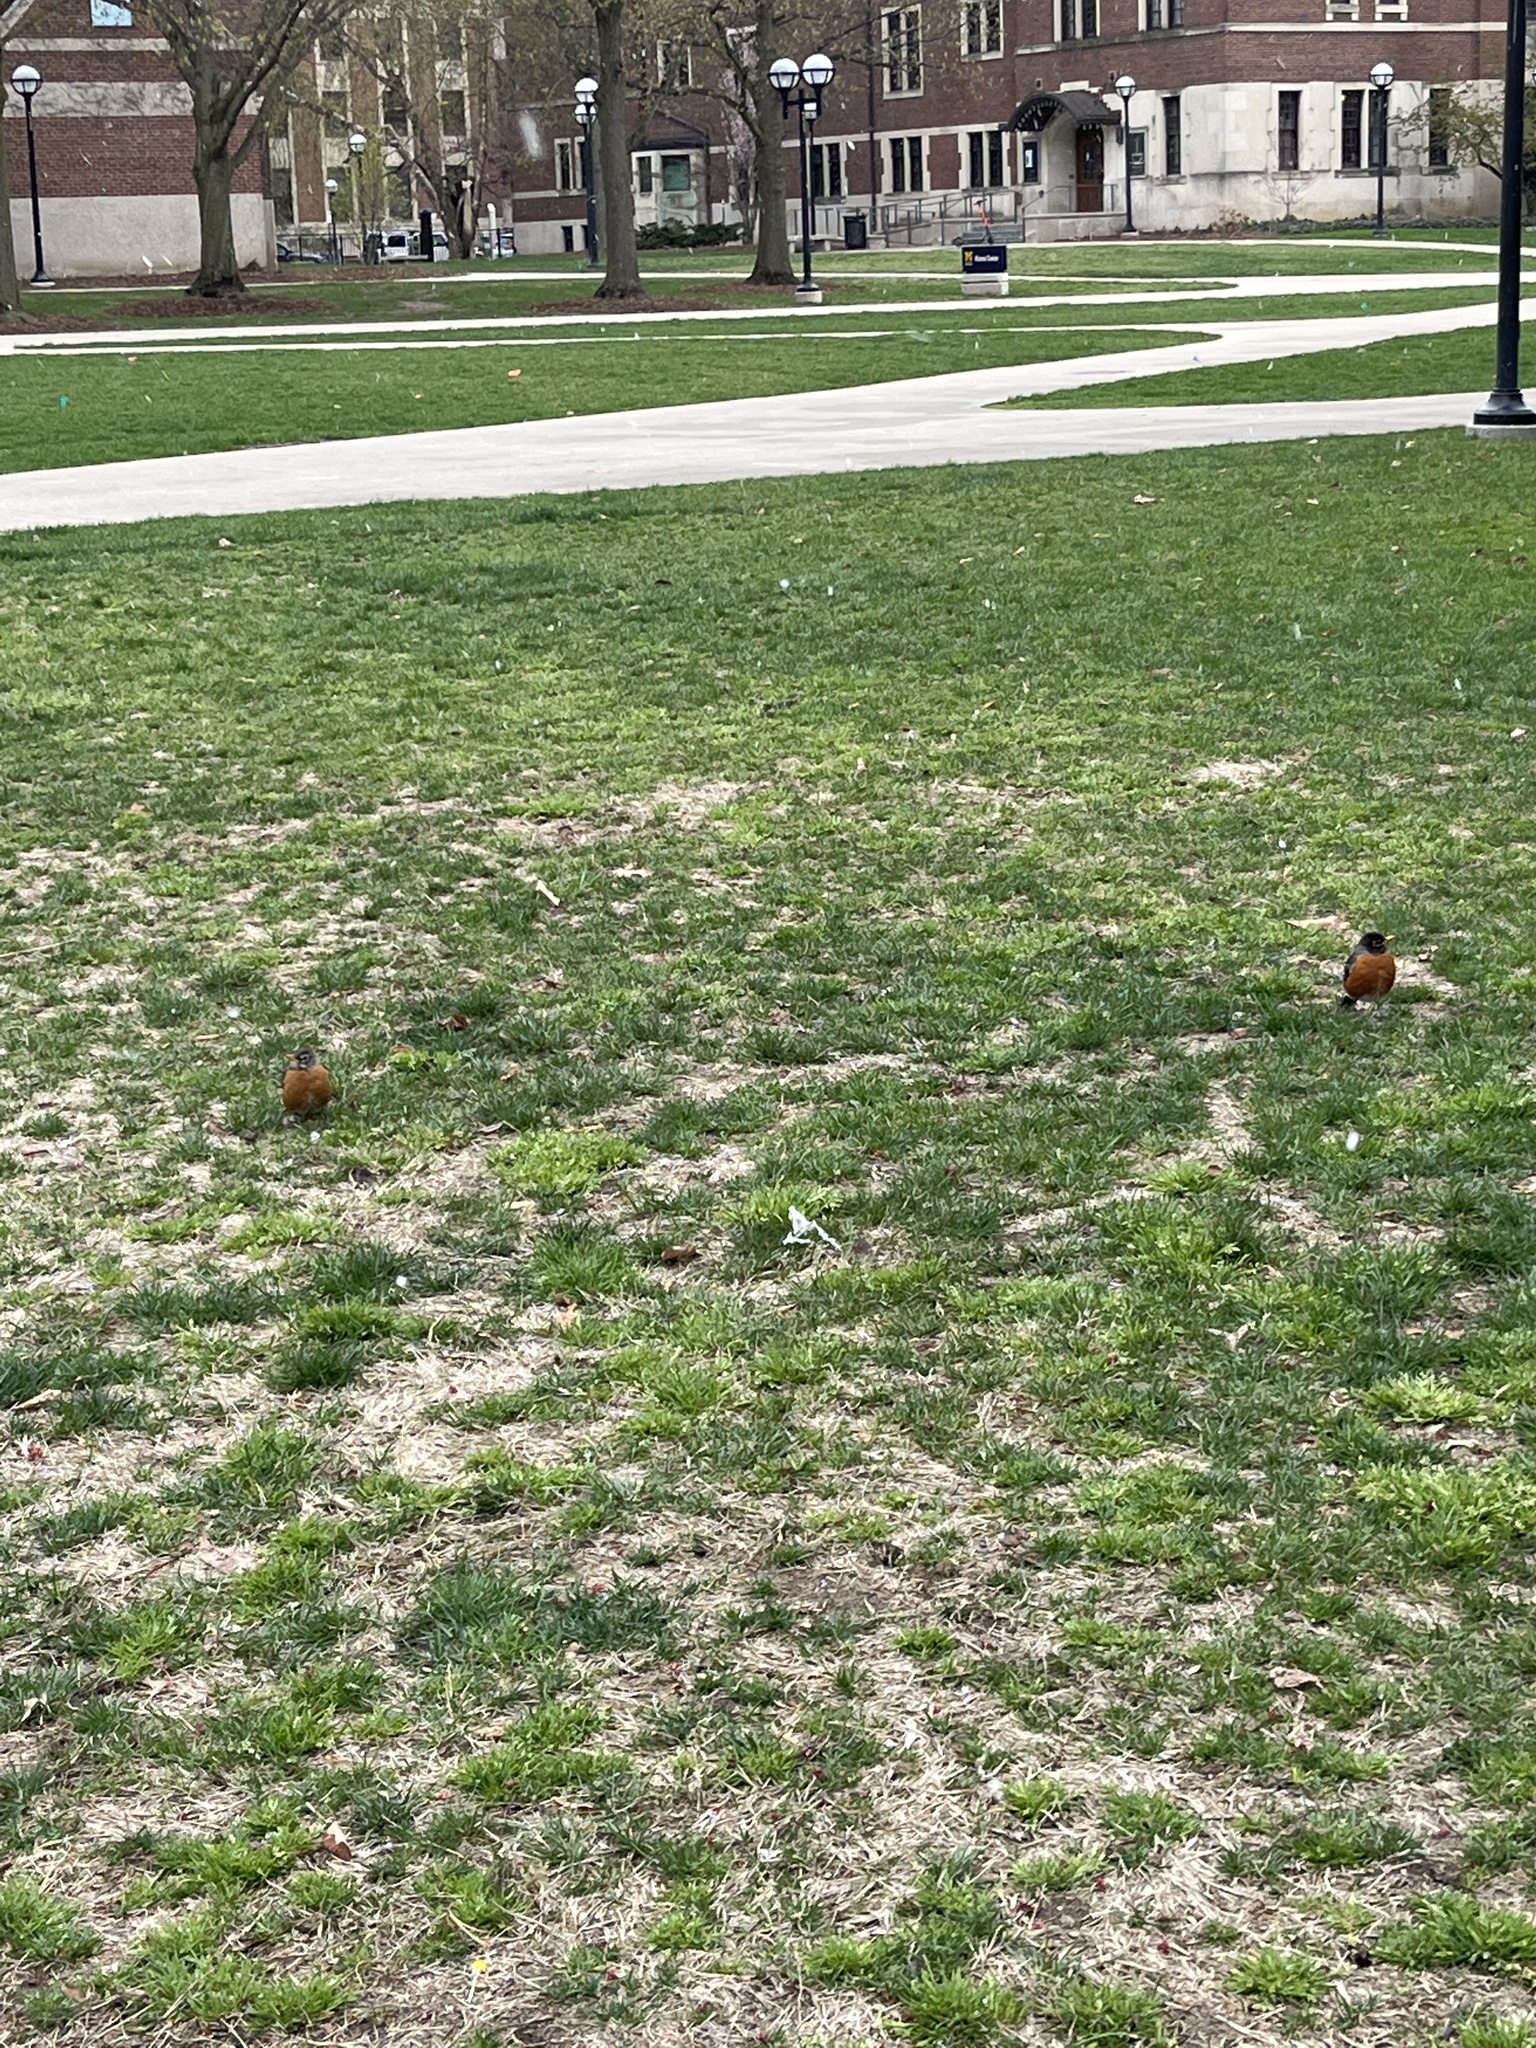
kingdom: Animalia
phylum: Chordata
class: Aves
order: Passeriformes
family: Turdidae
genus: Turdus
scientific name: Turdus migratorius
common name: American robin
